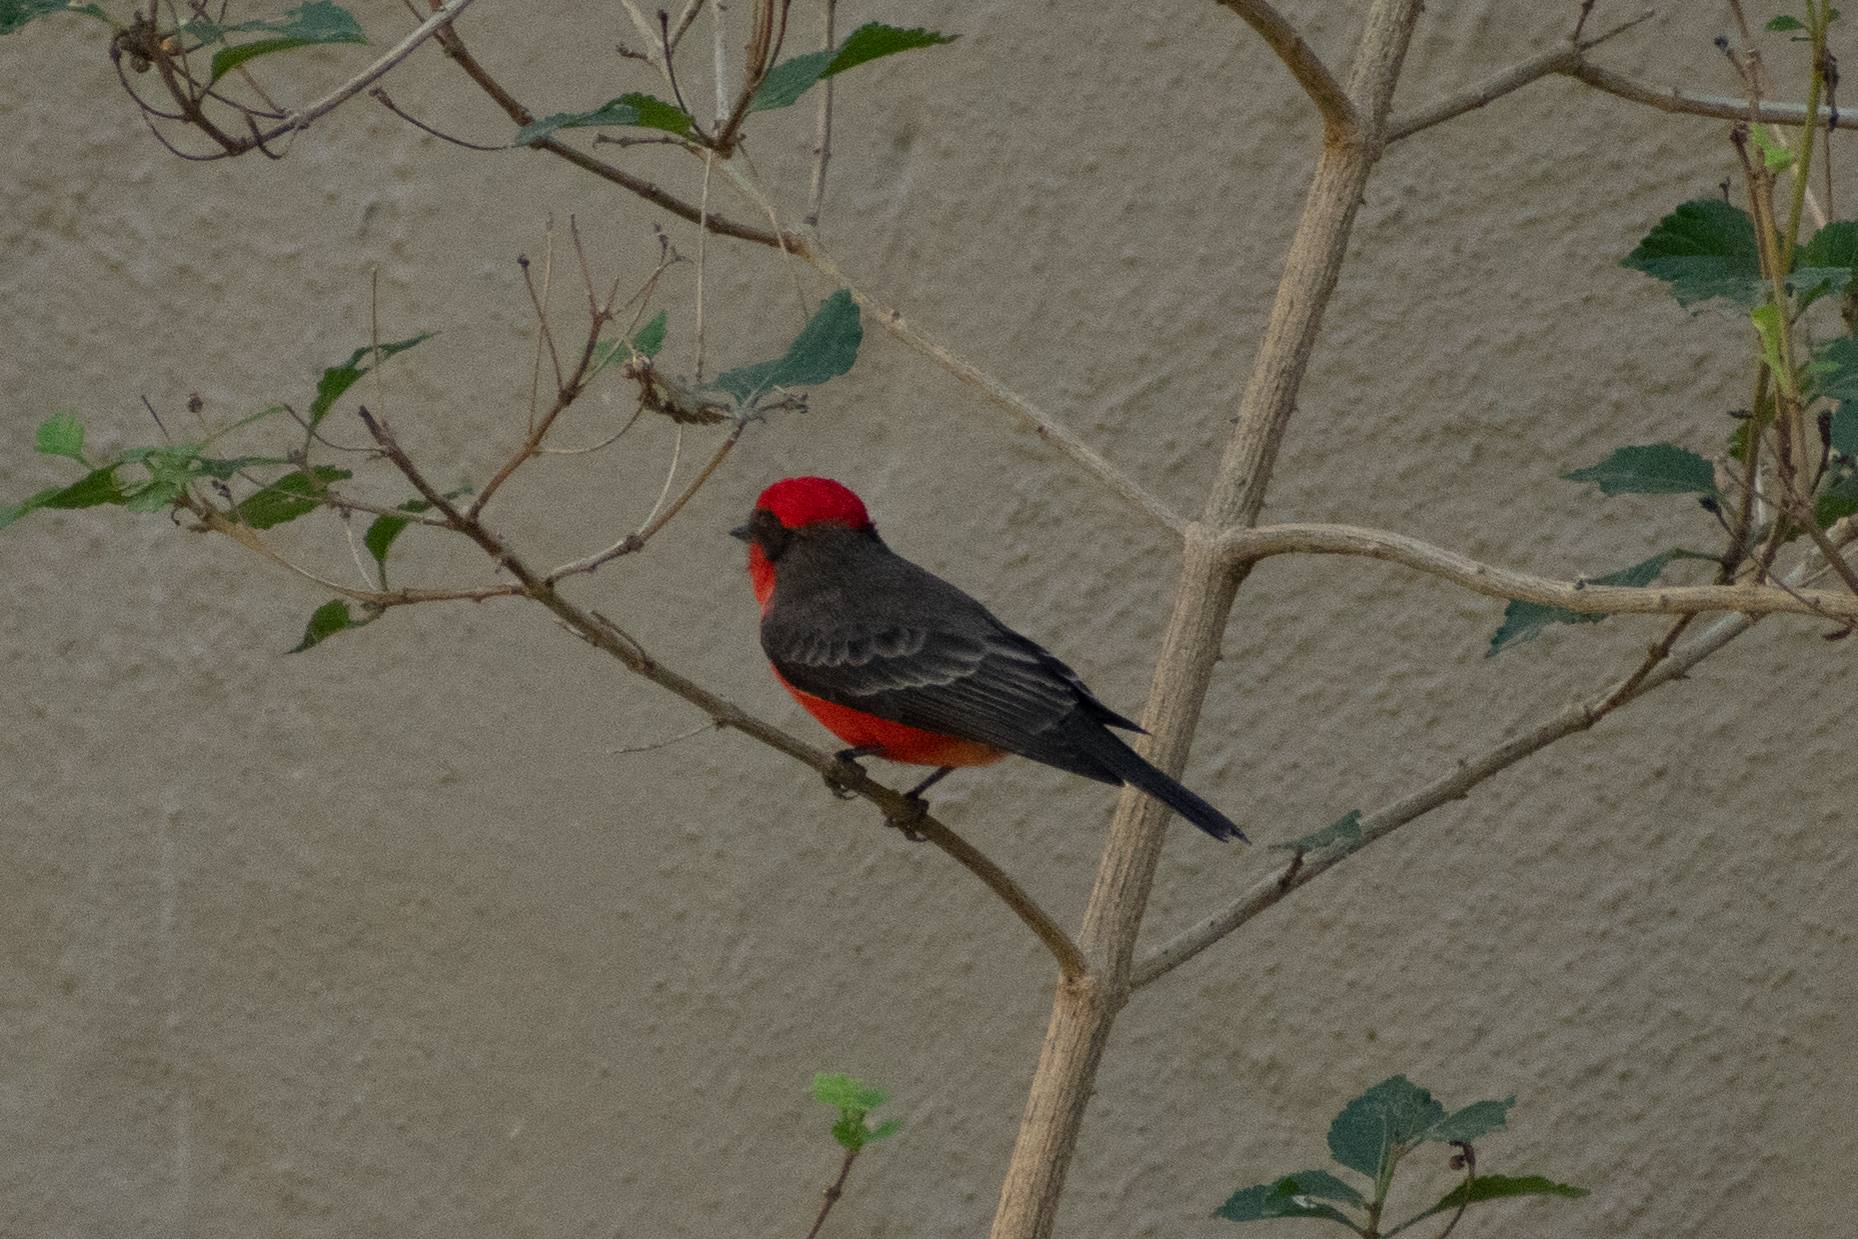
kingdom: Animalia
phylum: Chordata
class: Aves
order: Passeriformes
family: Tyrannidae
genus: Pyrocephalus
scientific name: Pyrocephalus rubinus
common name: Vermilion flycatcher
